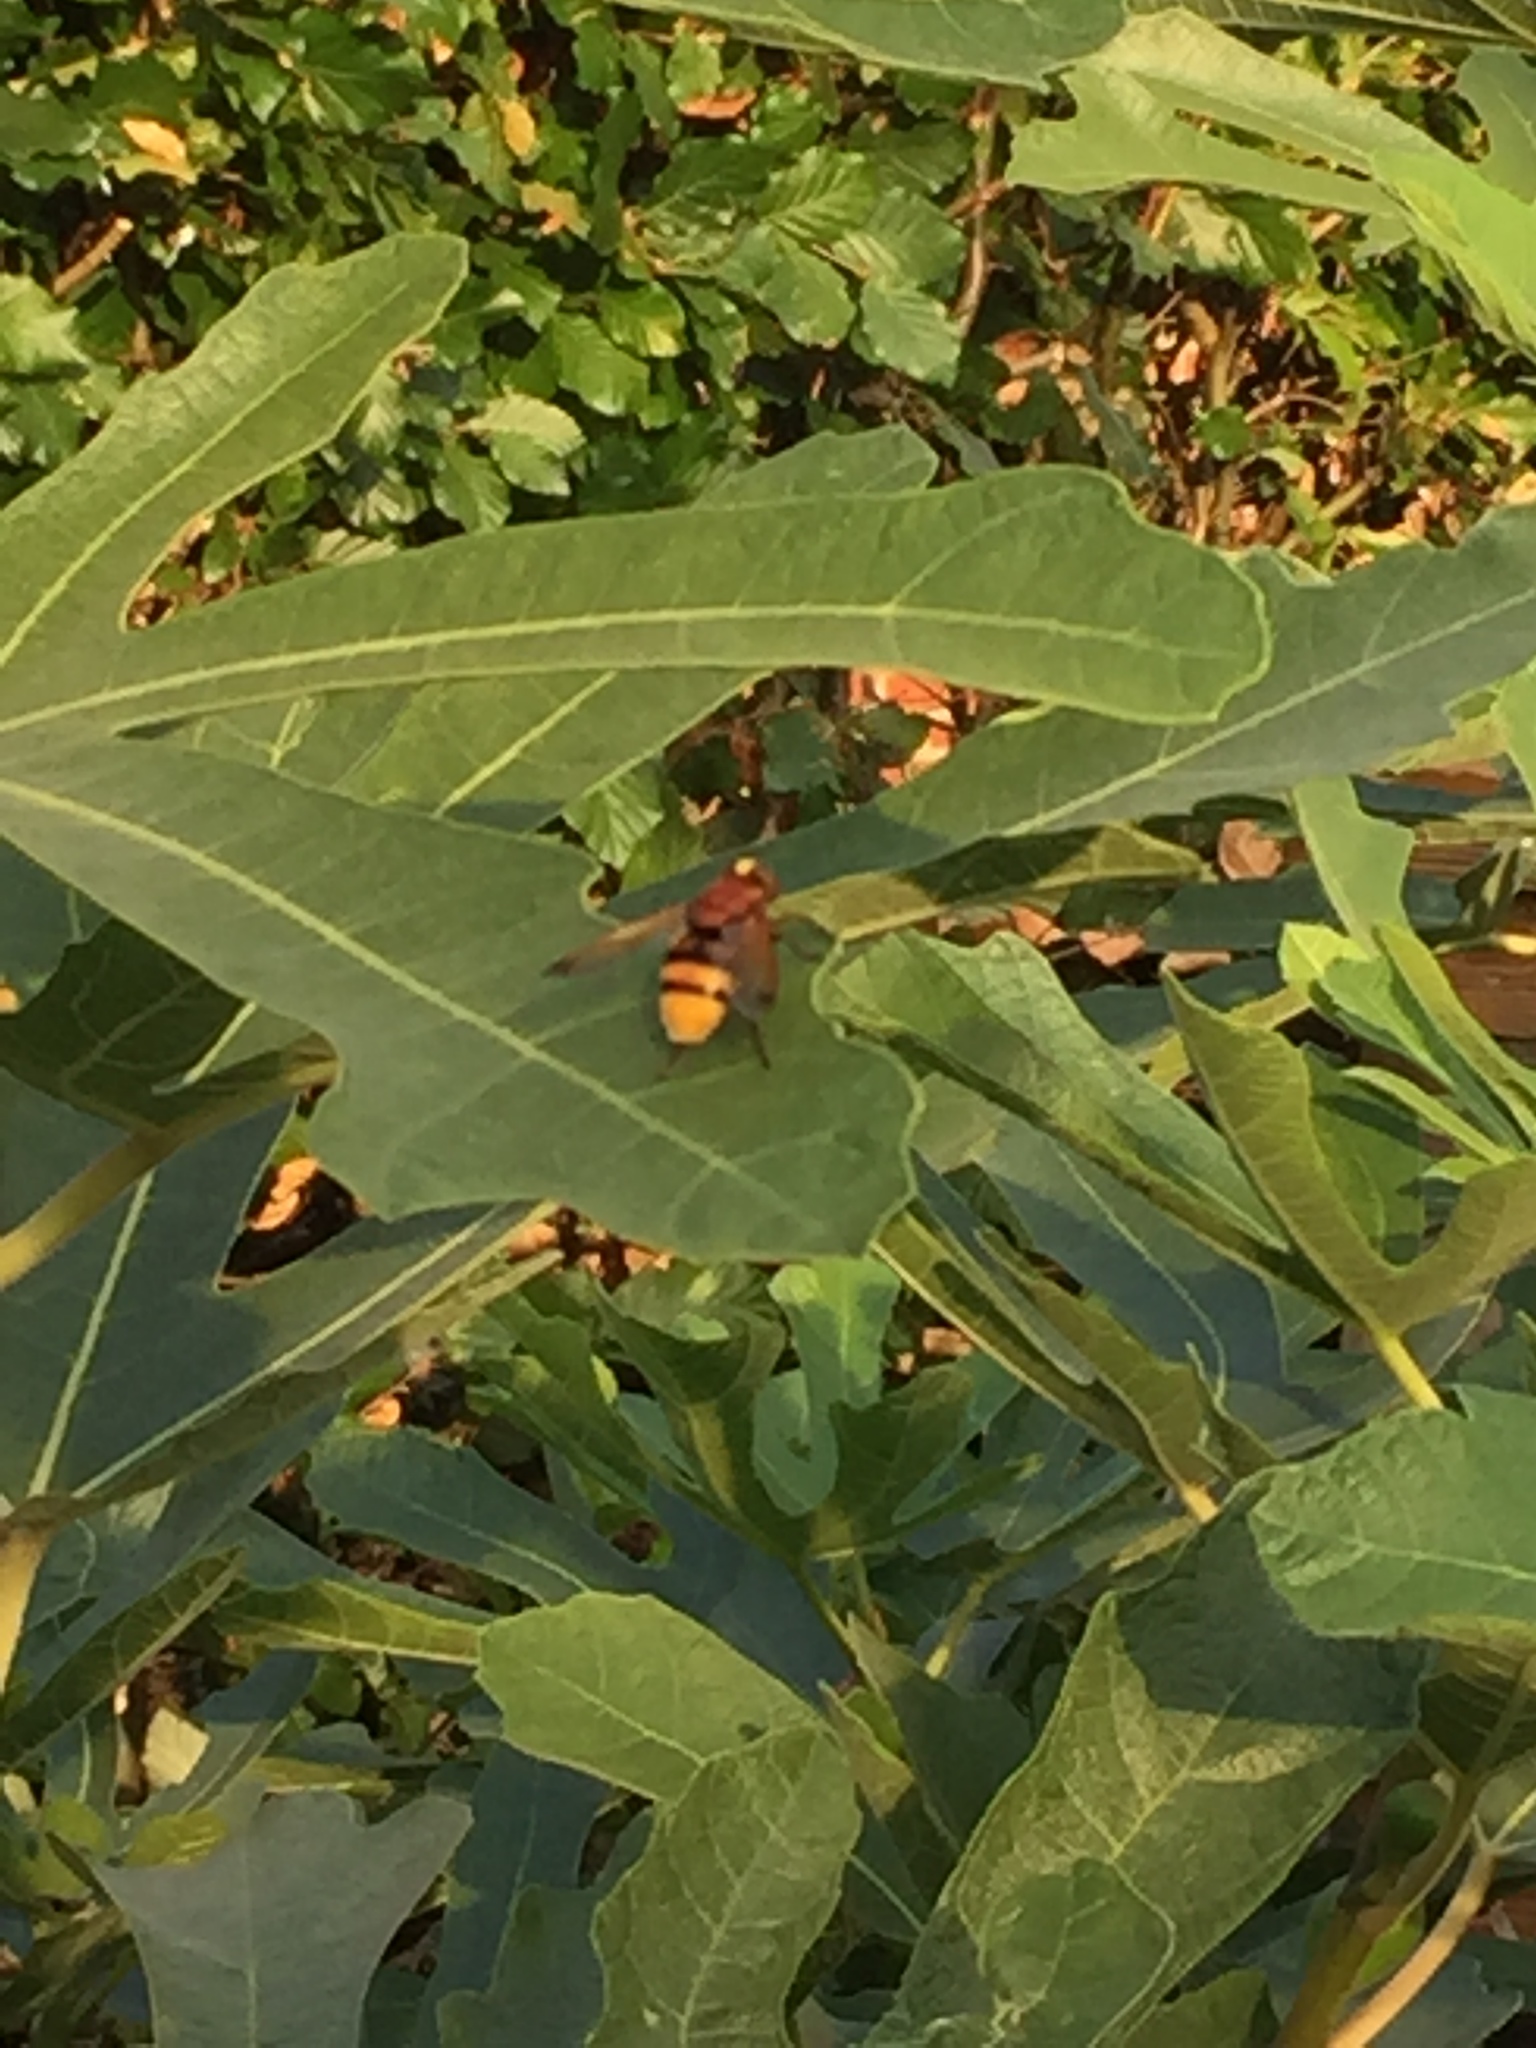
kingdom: Animalia
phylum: Arthropoda
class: Insecta
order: Diptera
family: Syrphidae
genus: Volucella
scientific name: Volucella zonaria
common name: Hornet hoverfly
